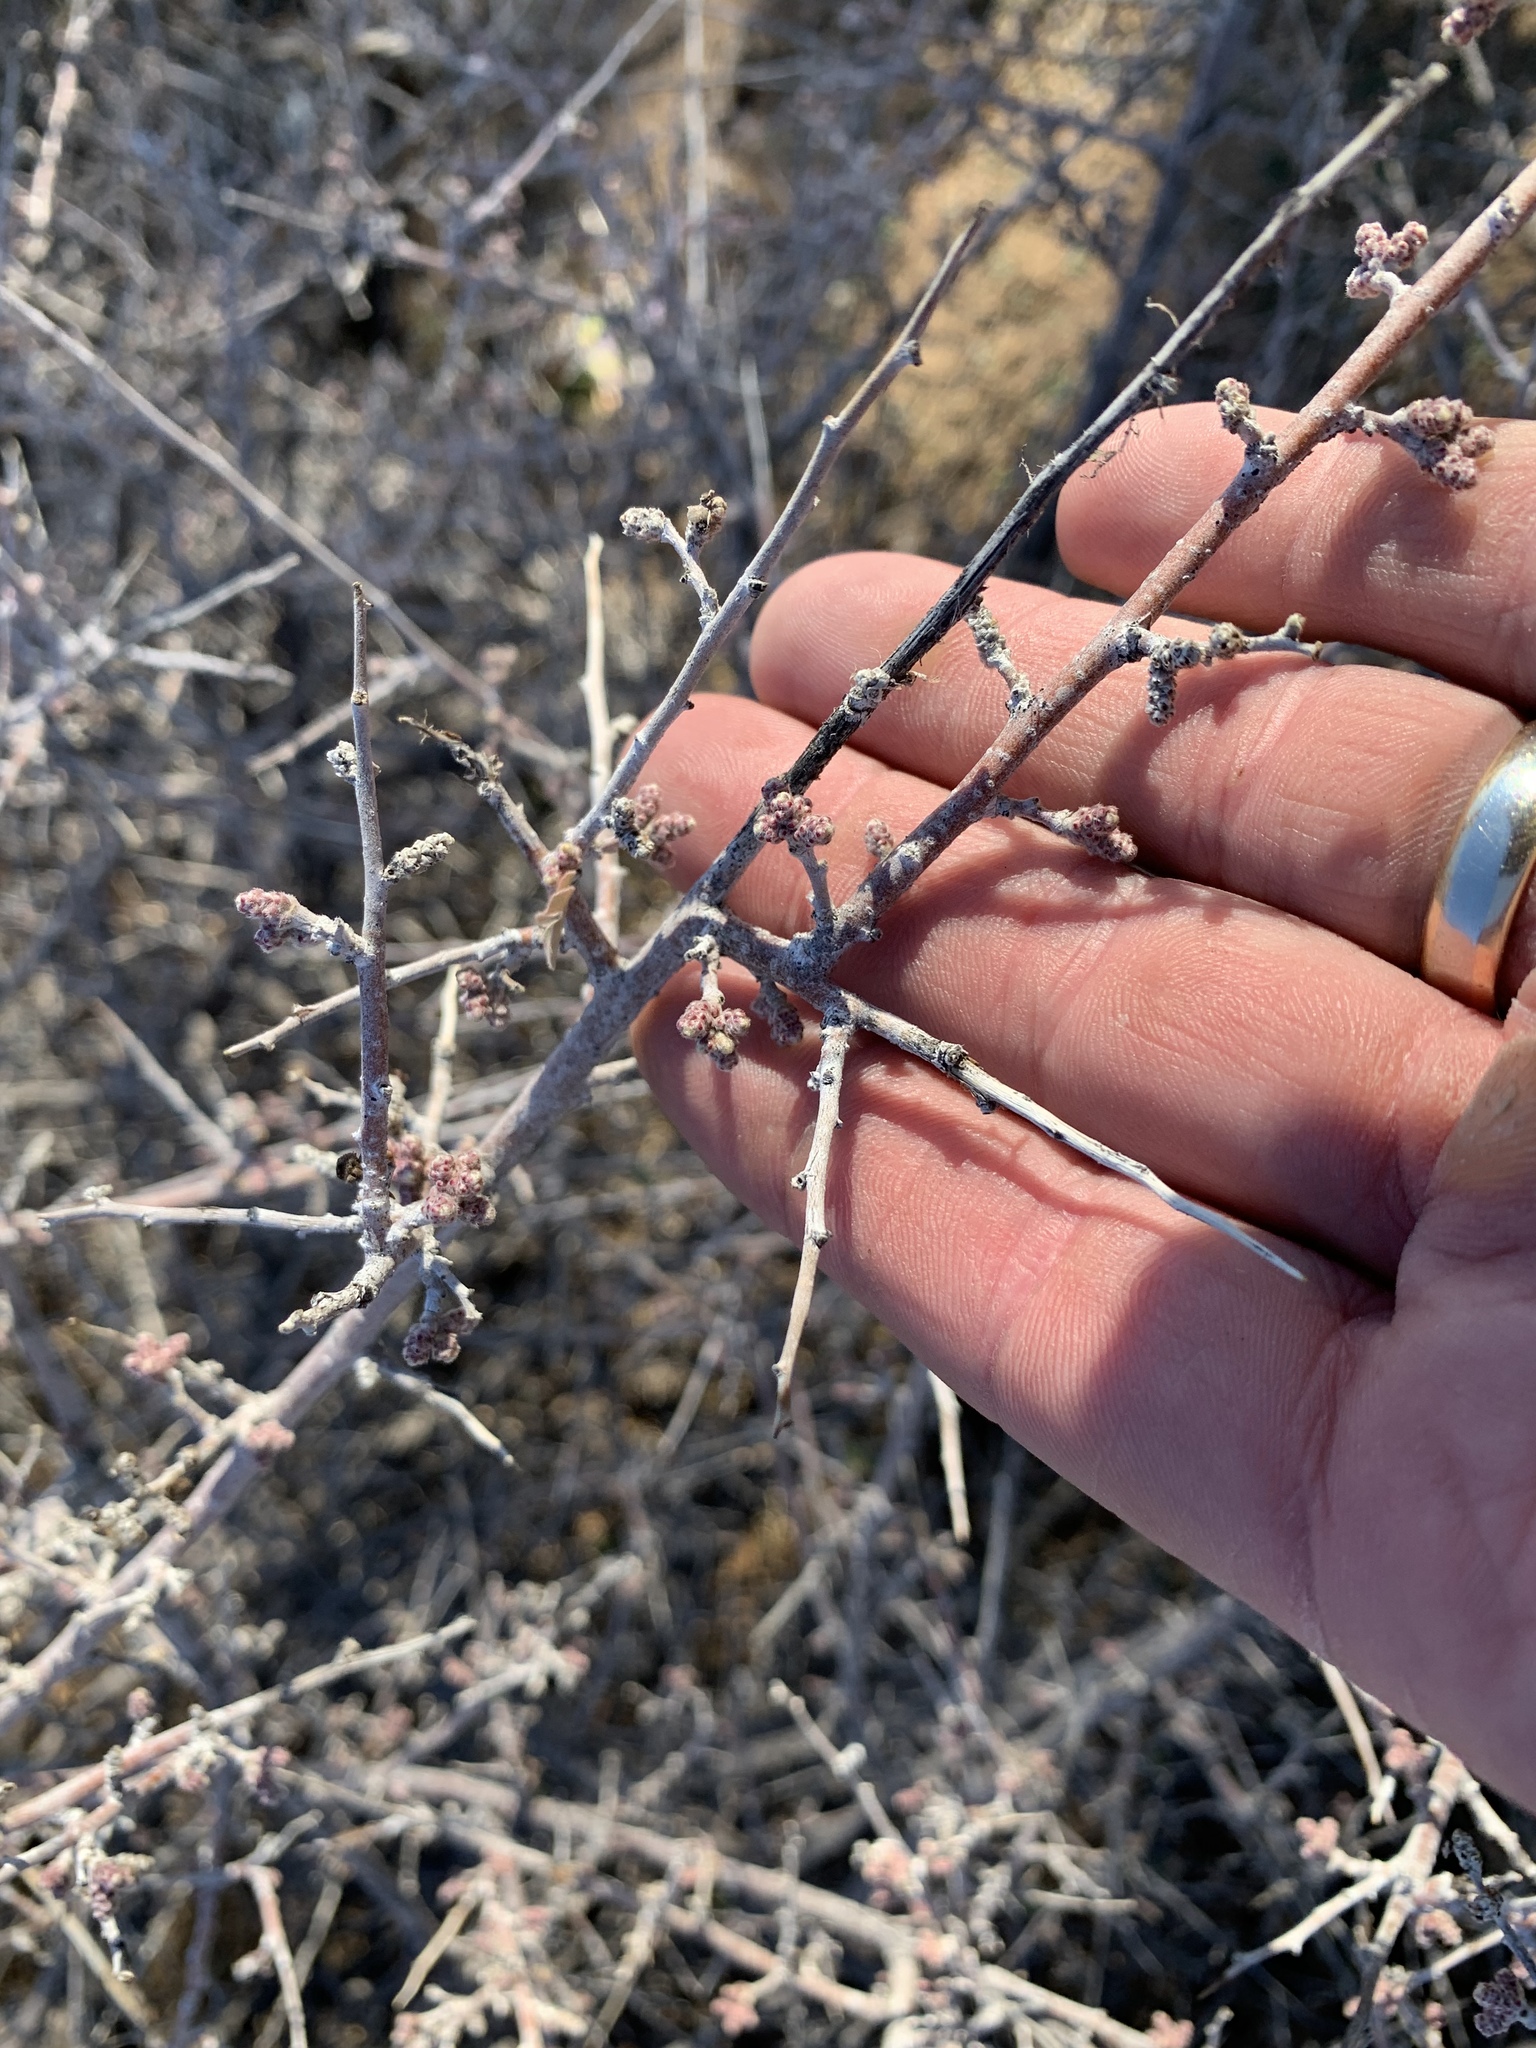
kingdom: Plantae
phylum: Tracheophyta
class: Magnoliopsida
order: Sapindales
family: Anacardiaceae
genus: Rhus
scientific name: Rhus microphylla
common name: Desert sumac
